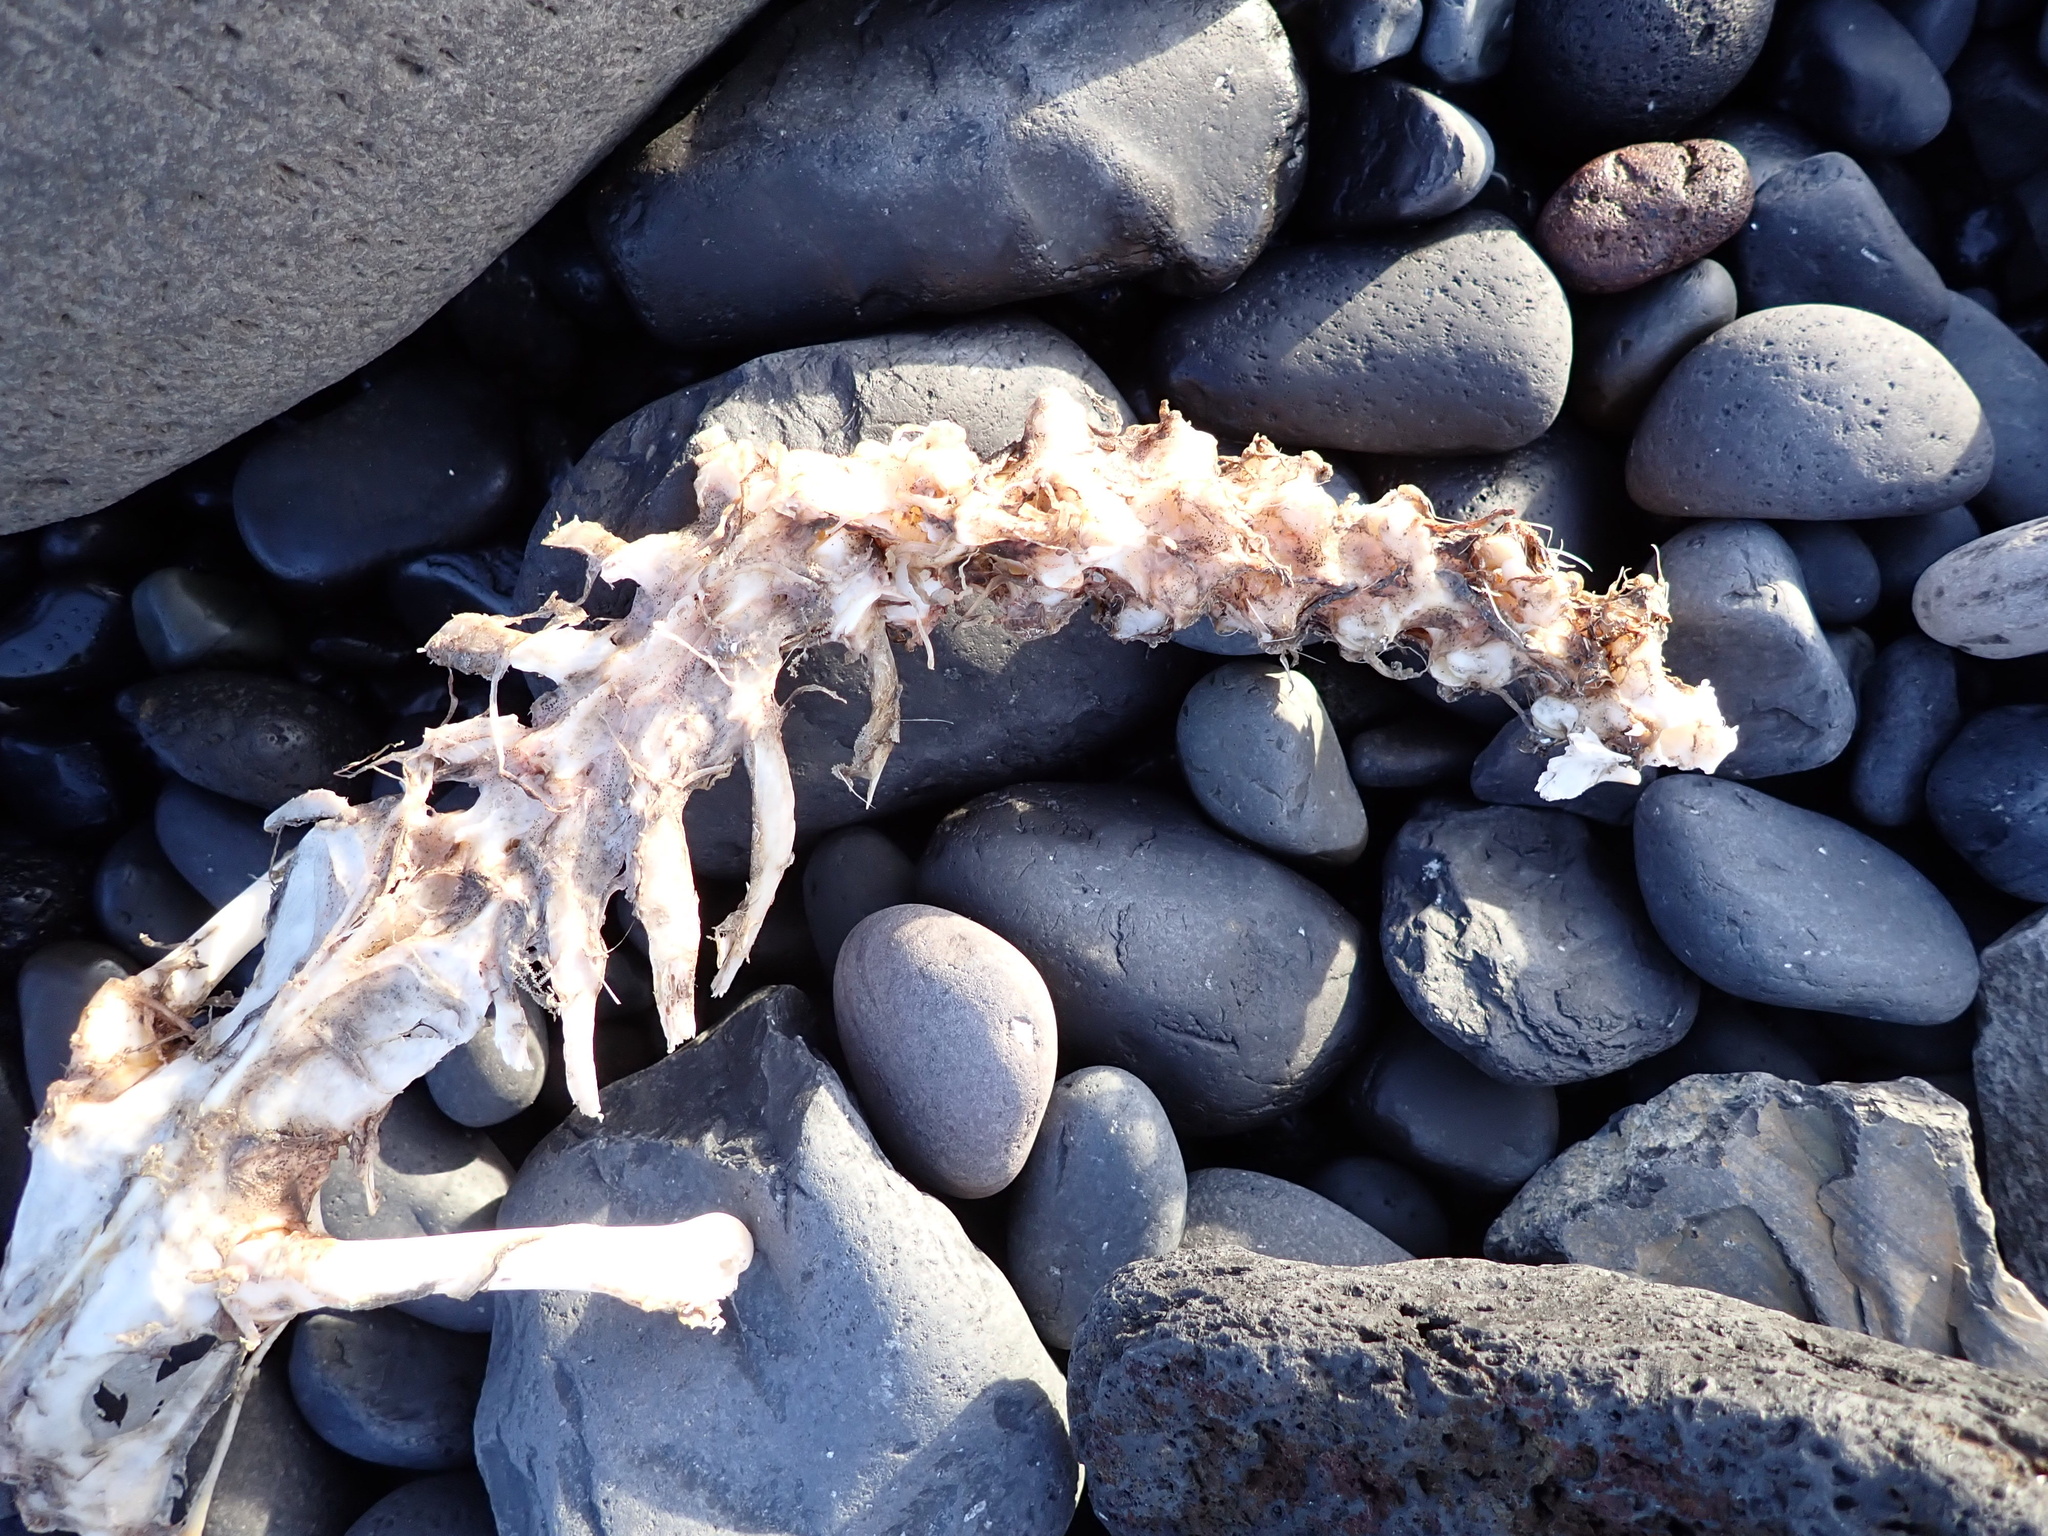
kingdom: Animalia
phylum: Chordata
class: Aves
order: Suliformes
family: Sulidae
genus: Morus
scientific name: Morus bassanus
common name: Northern gannet
